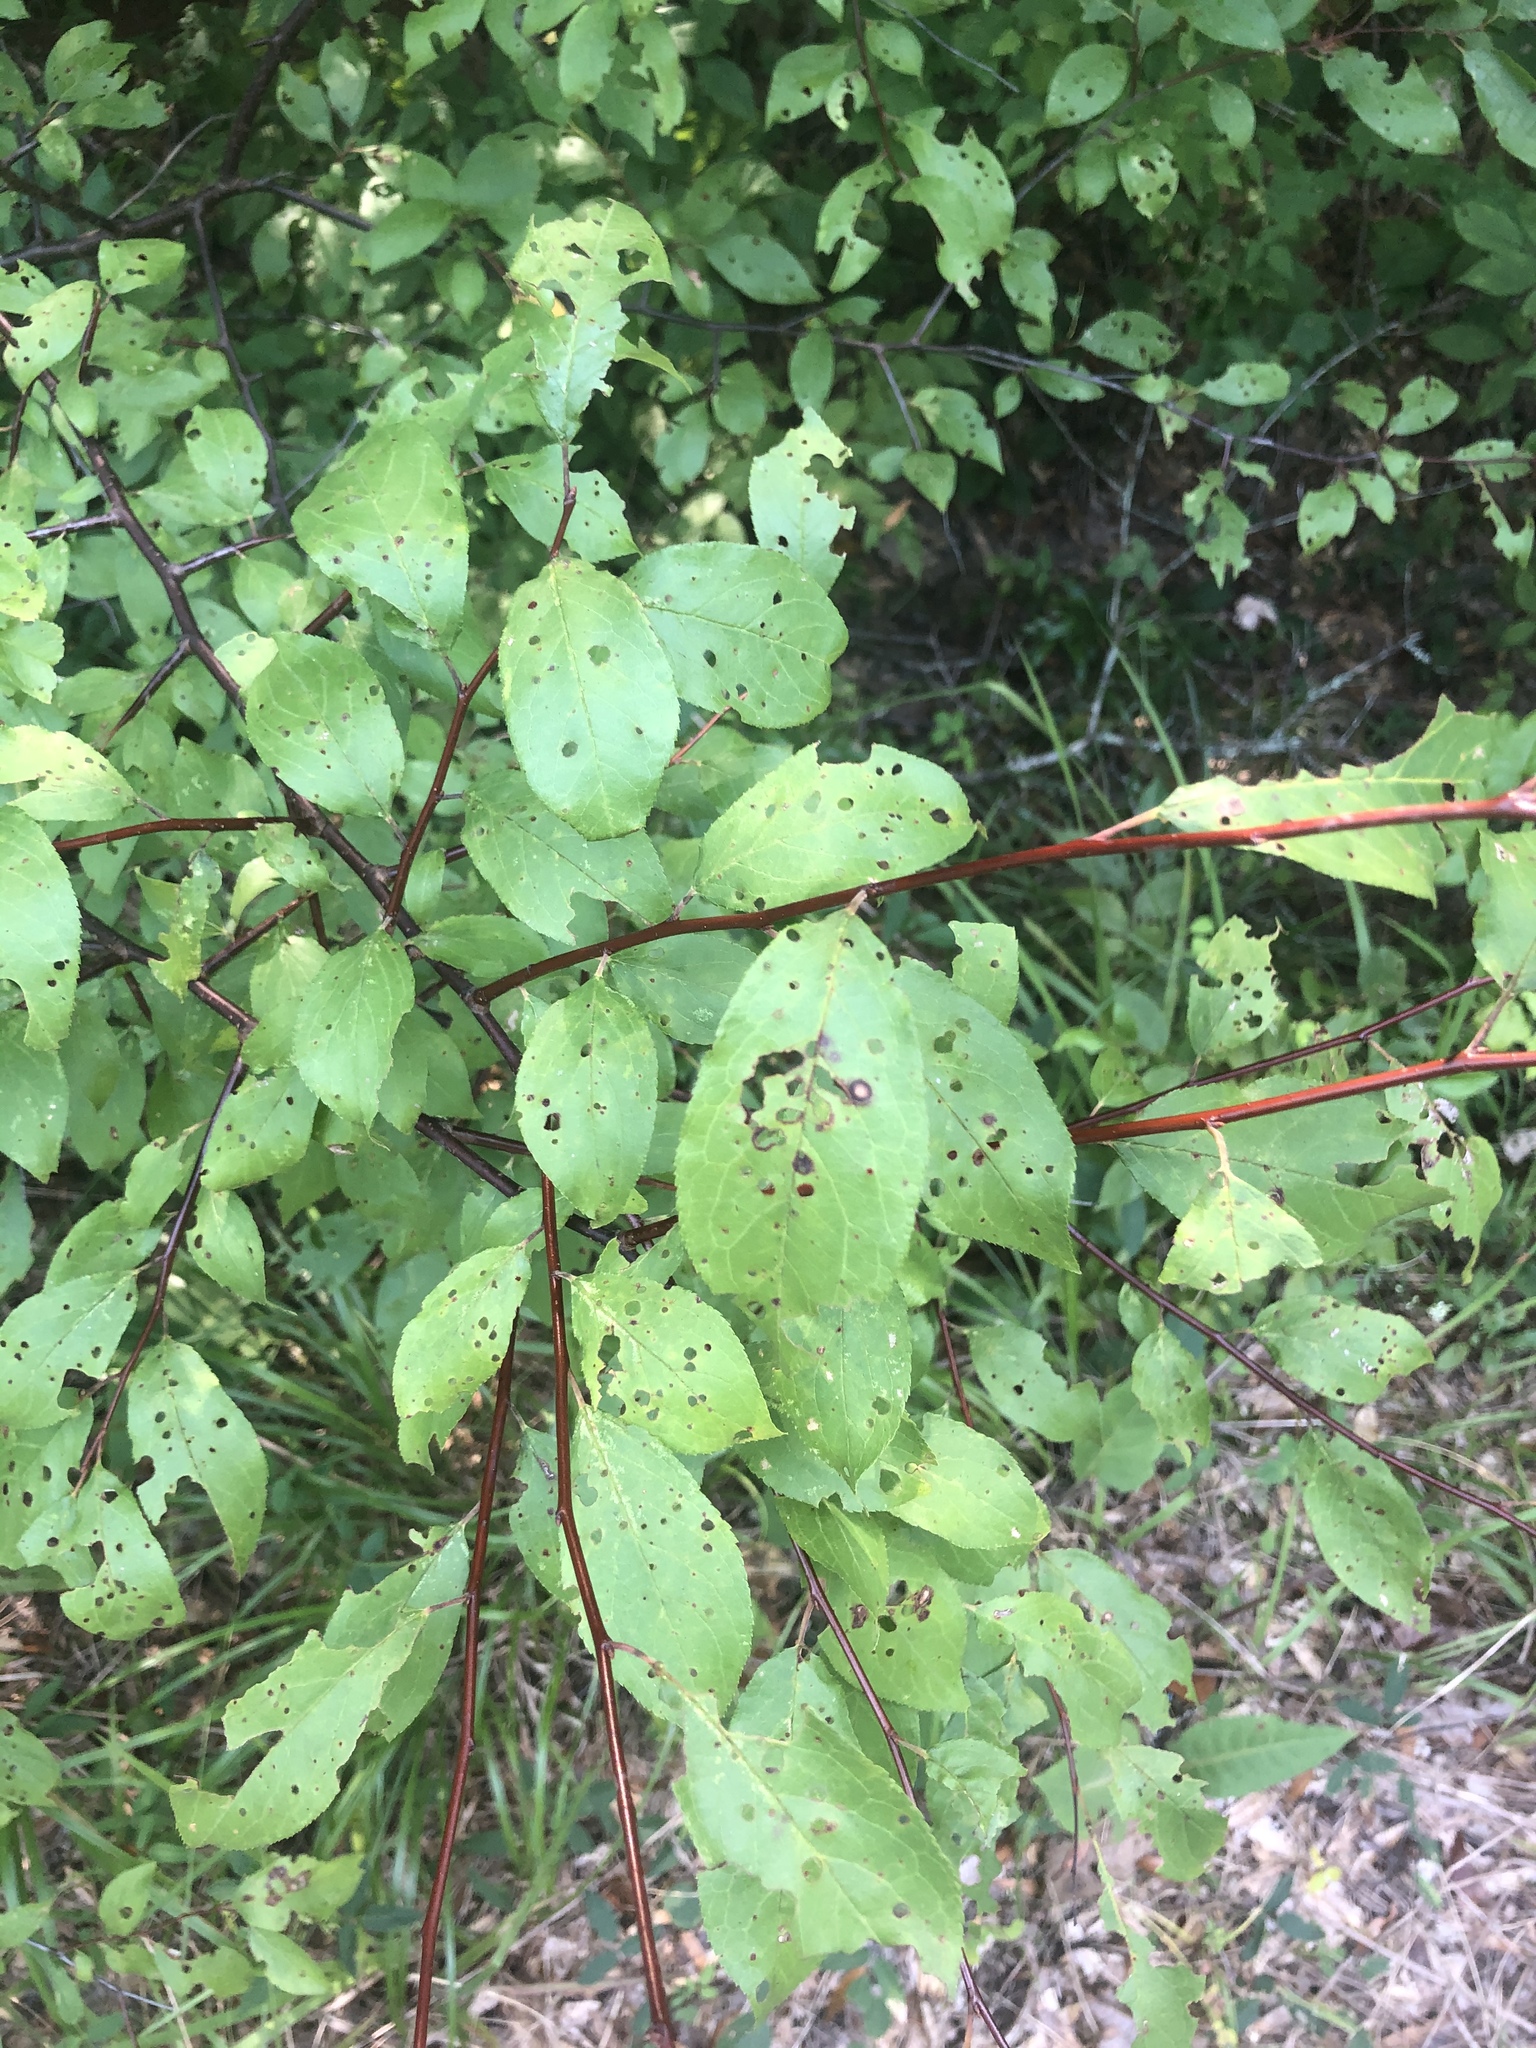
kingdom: Plantae
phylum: Tracheophyta
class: Magnoliopsida
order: Rosales
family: Rosaceae
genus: Prunus
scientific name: Prunus umbellata
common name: Allegheny plum
